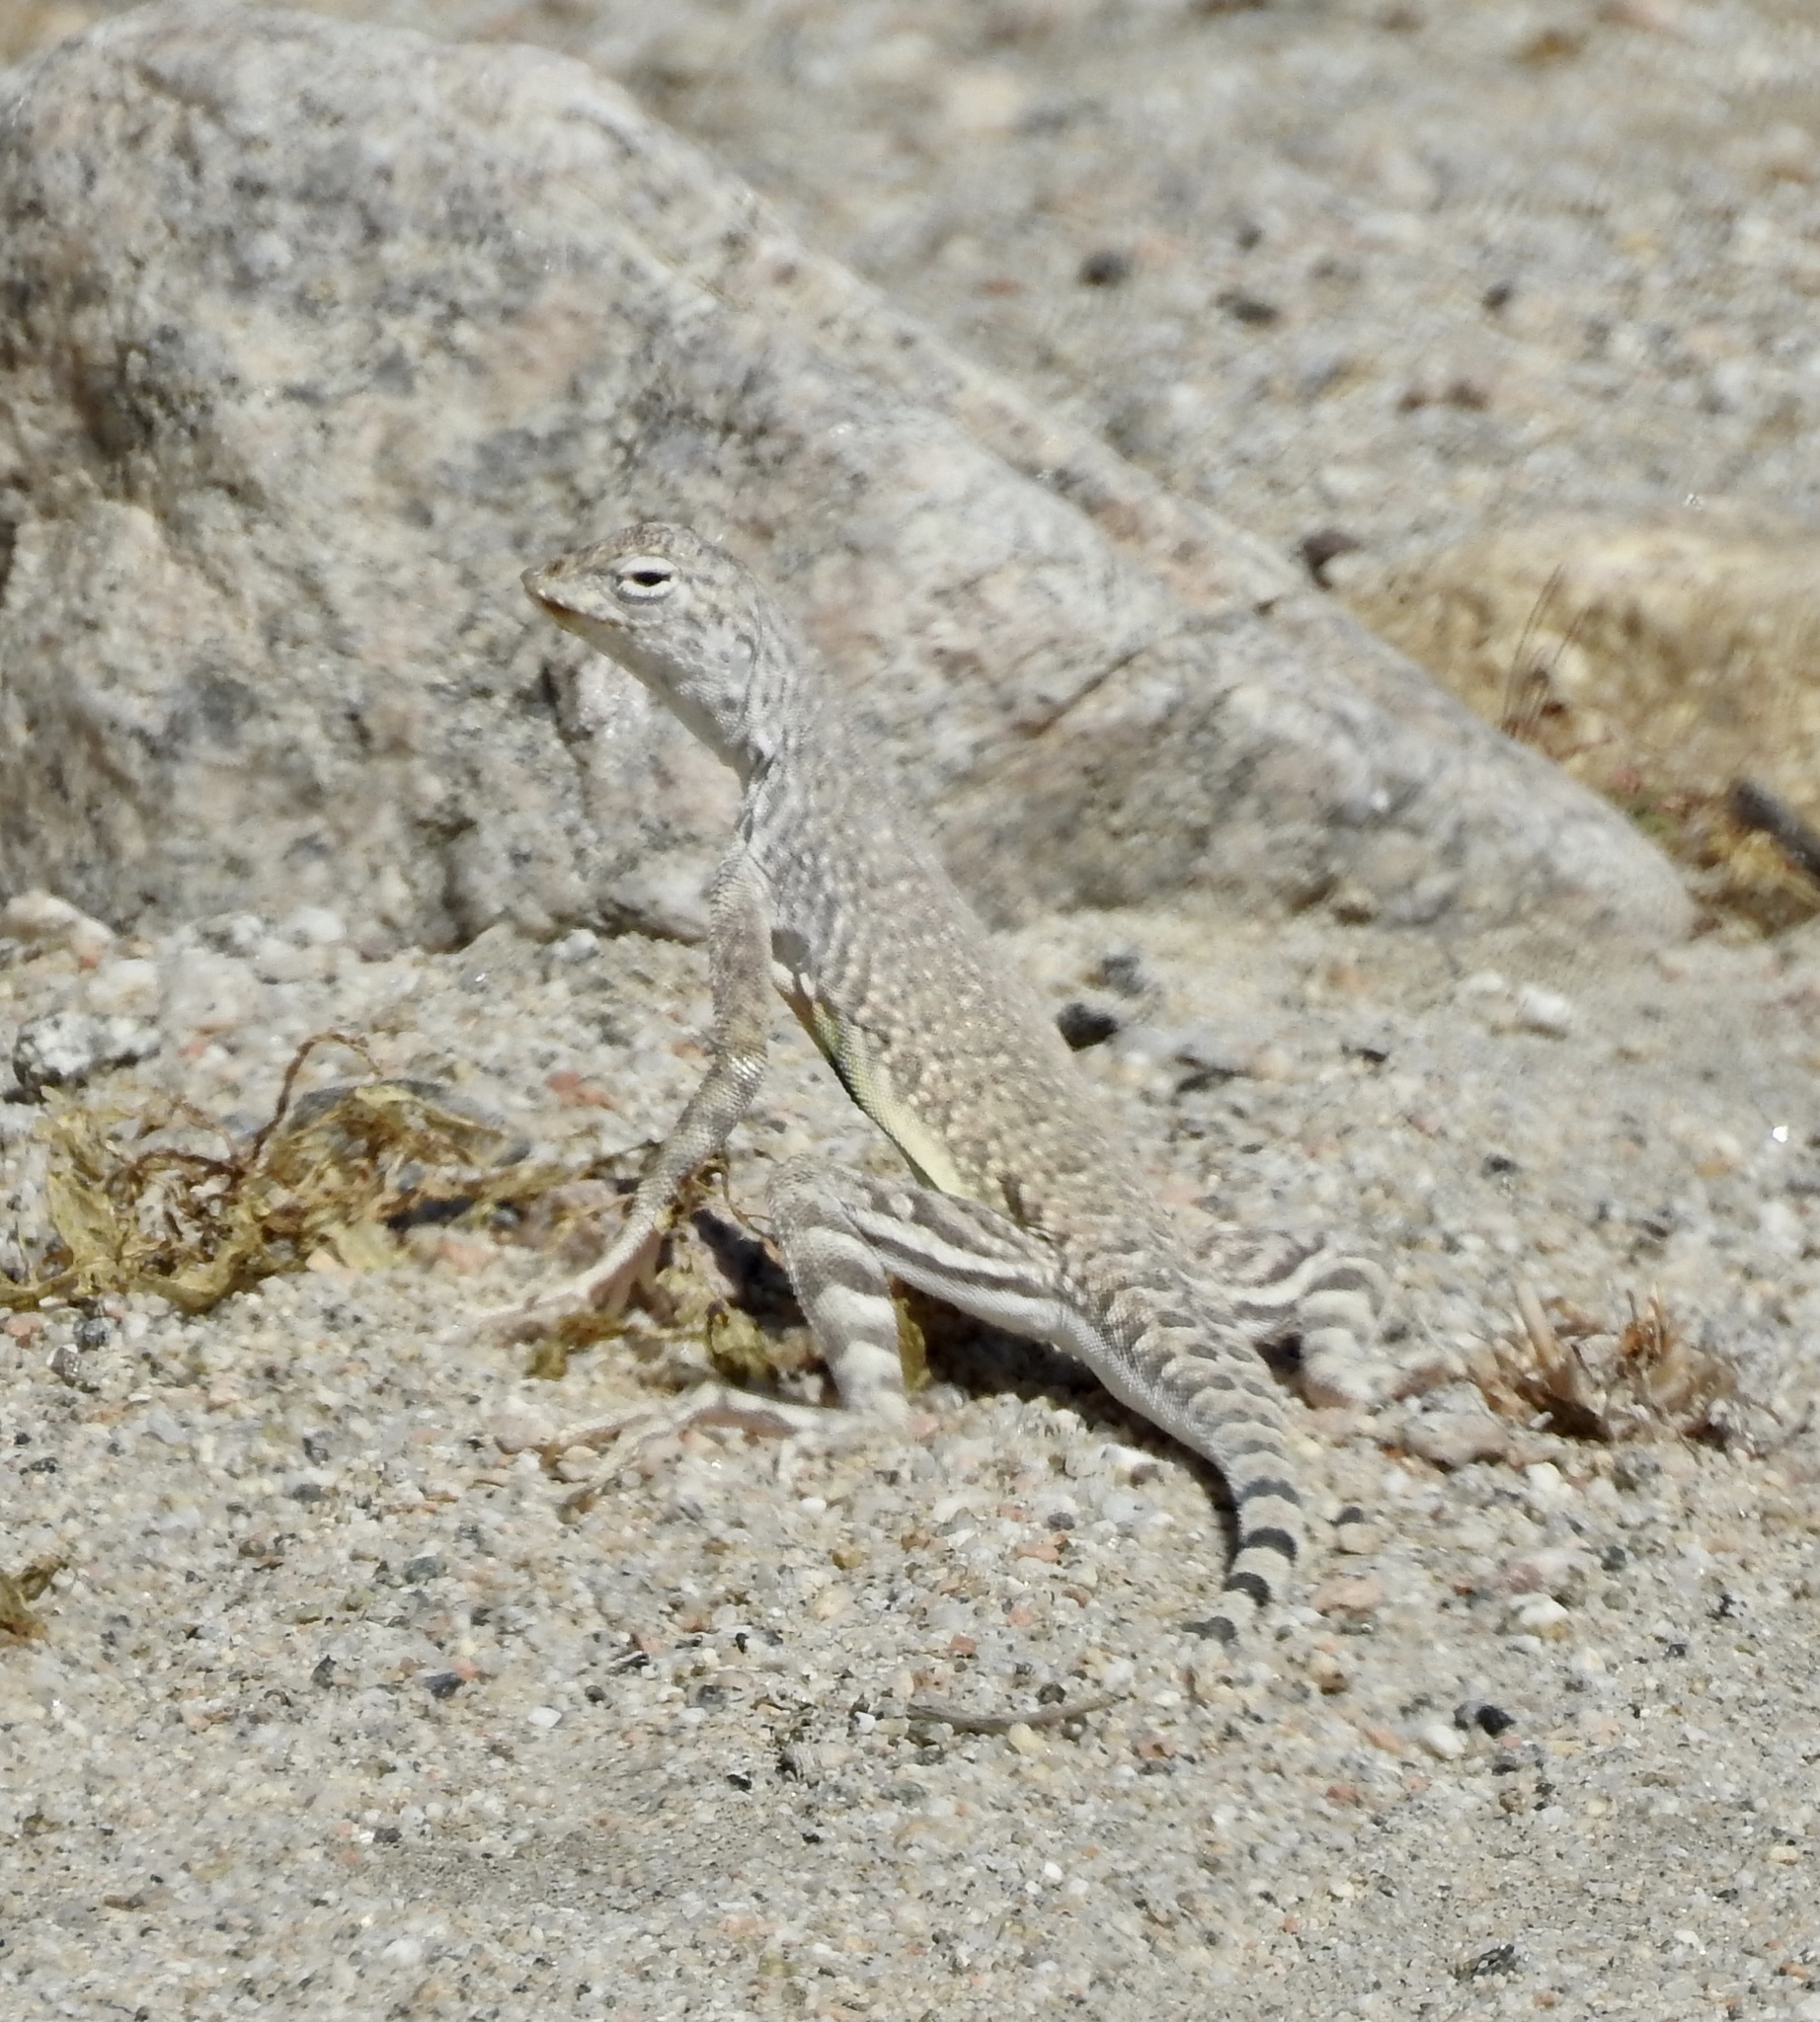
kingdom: Animalia
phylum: Chordata
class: Squamata
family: Phrynosomatidae
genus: Callisaurus
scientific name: Callisaurus draconoides
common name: Zebra-tailed lizard
